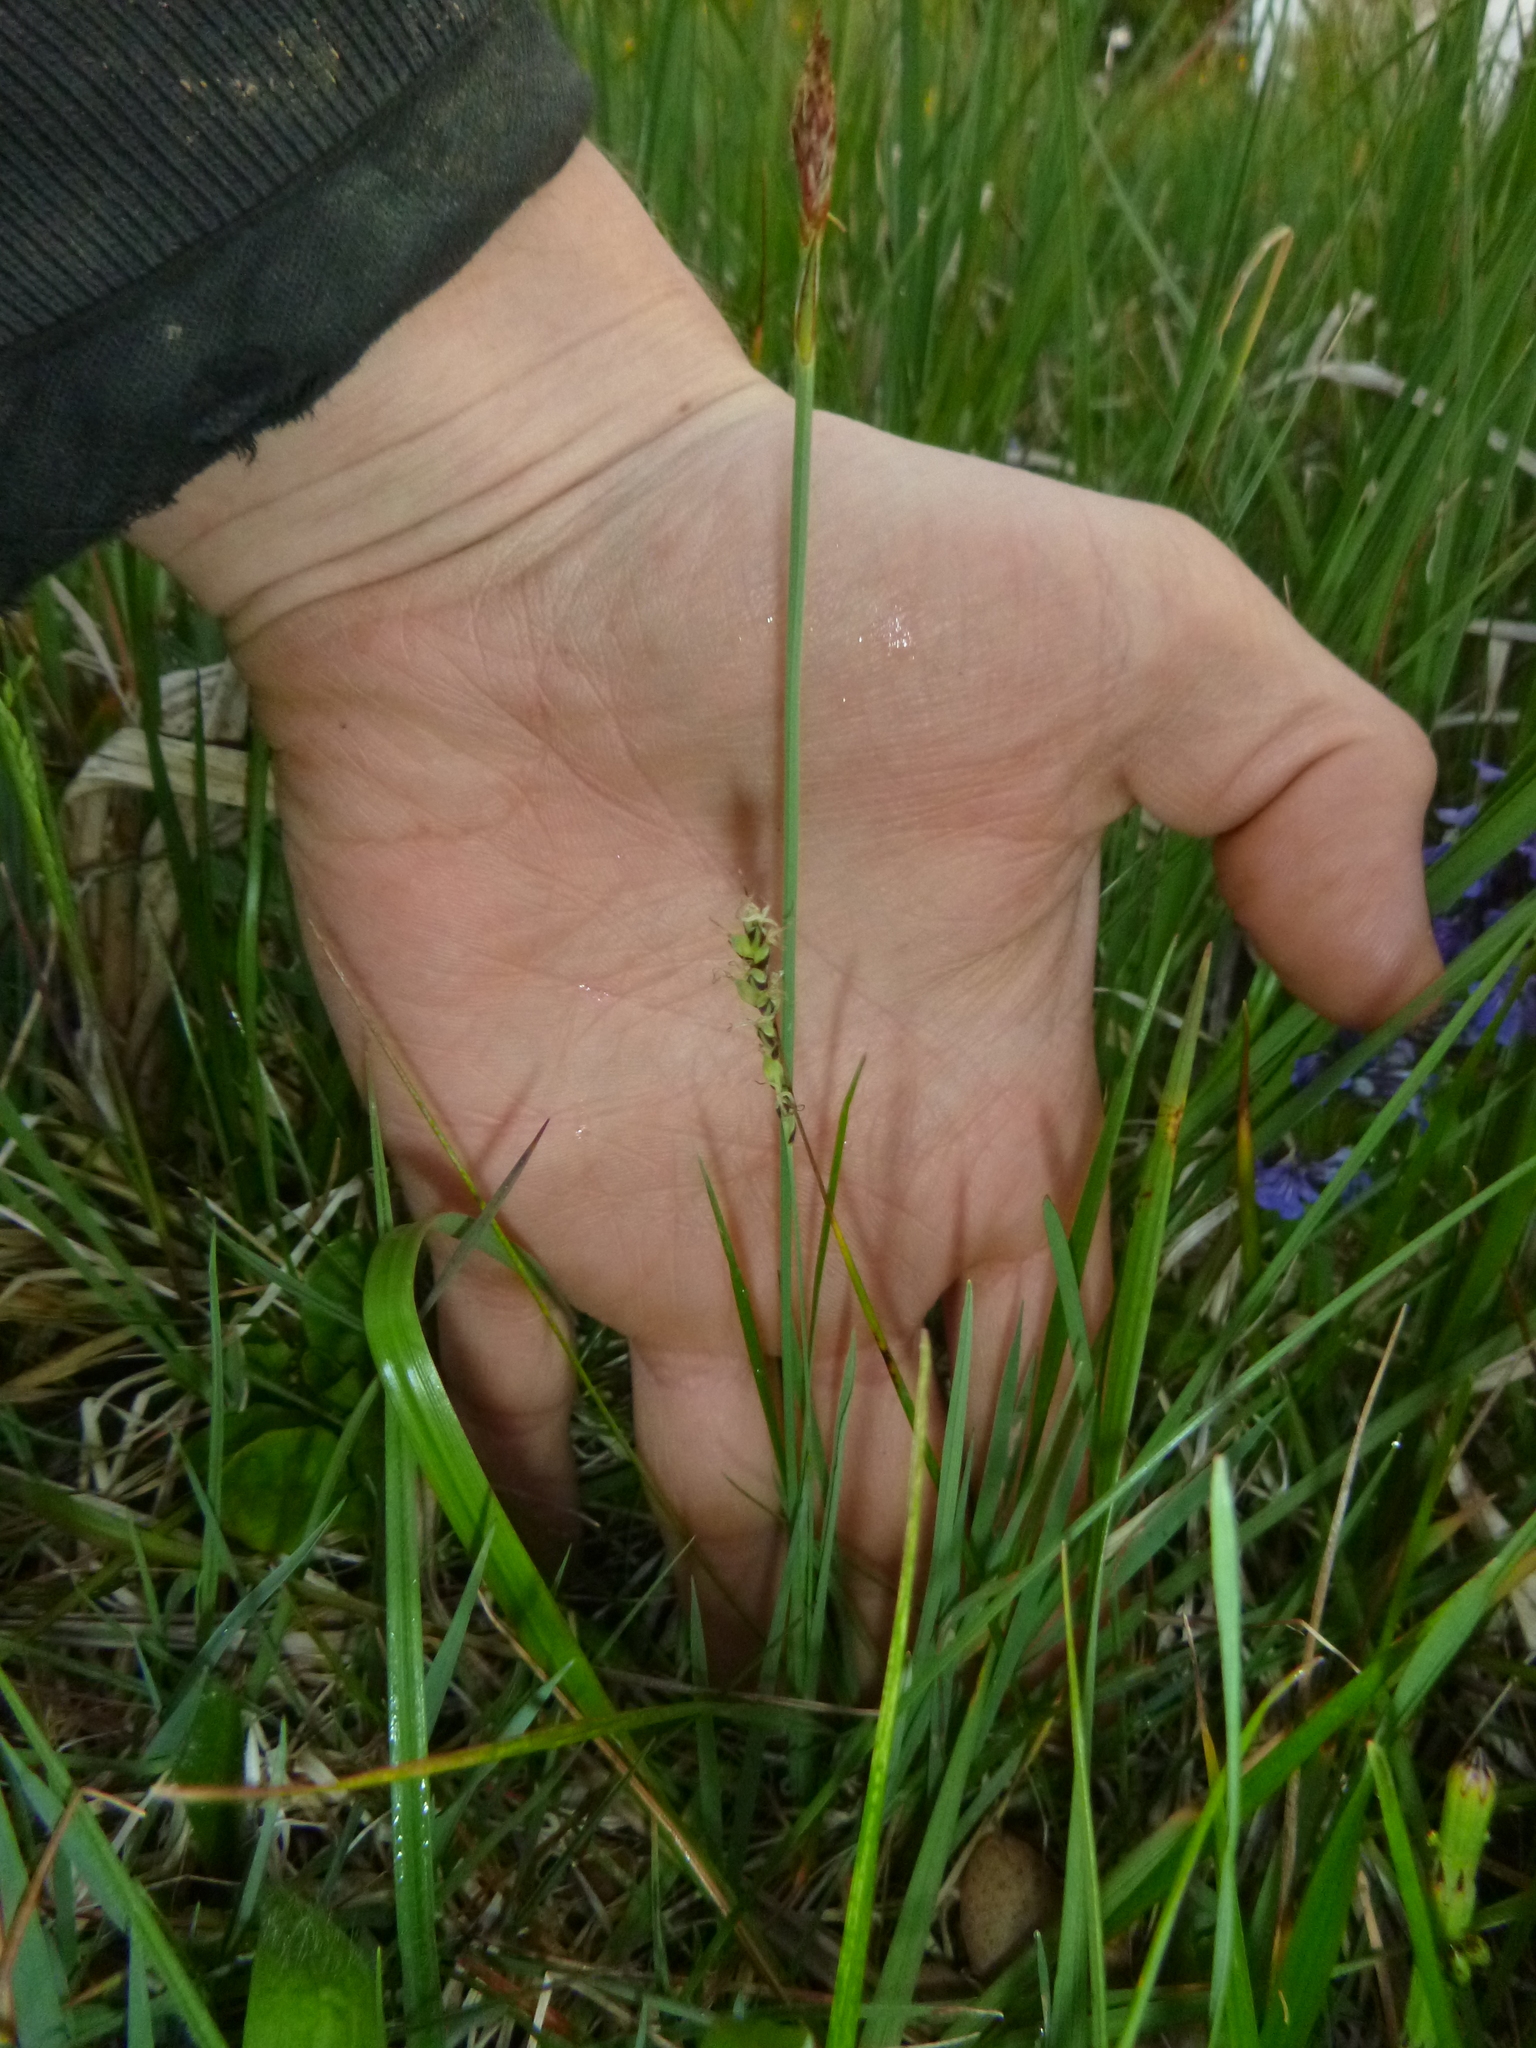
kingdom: Plantae
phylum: Tracheophyta
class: Liliopsida
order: Poales
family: Cyperaceae
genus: Carex
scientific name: Carex panicea
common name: Carnation sedge
